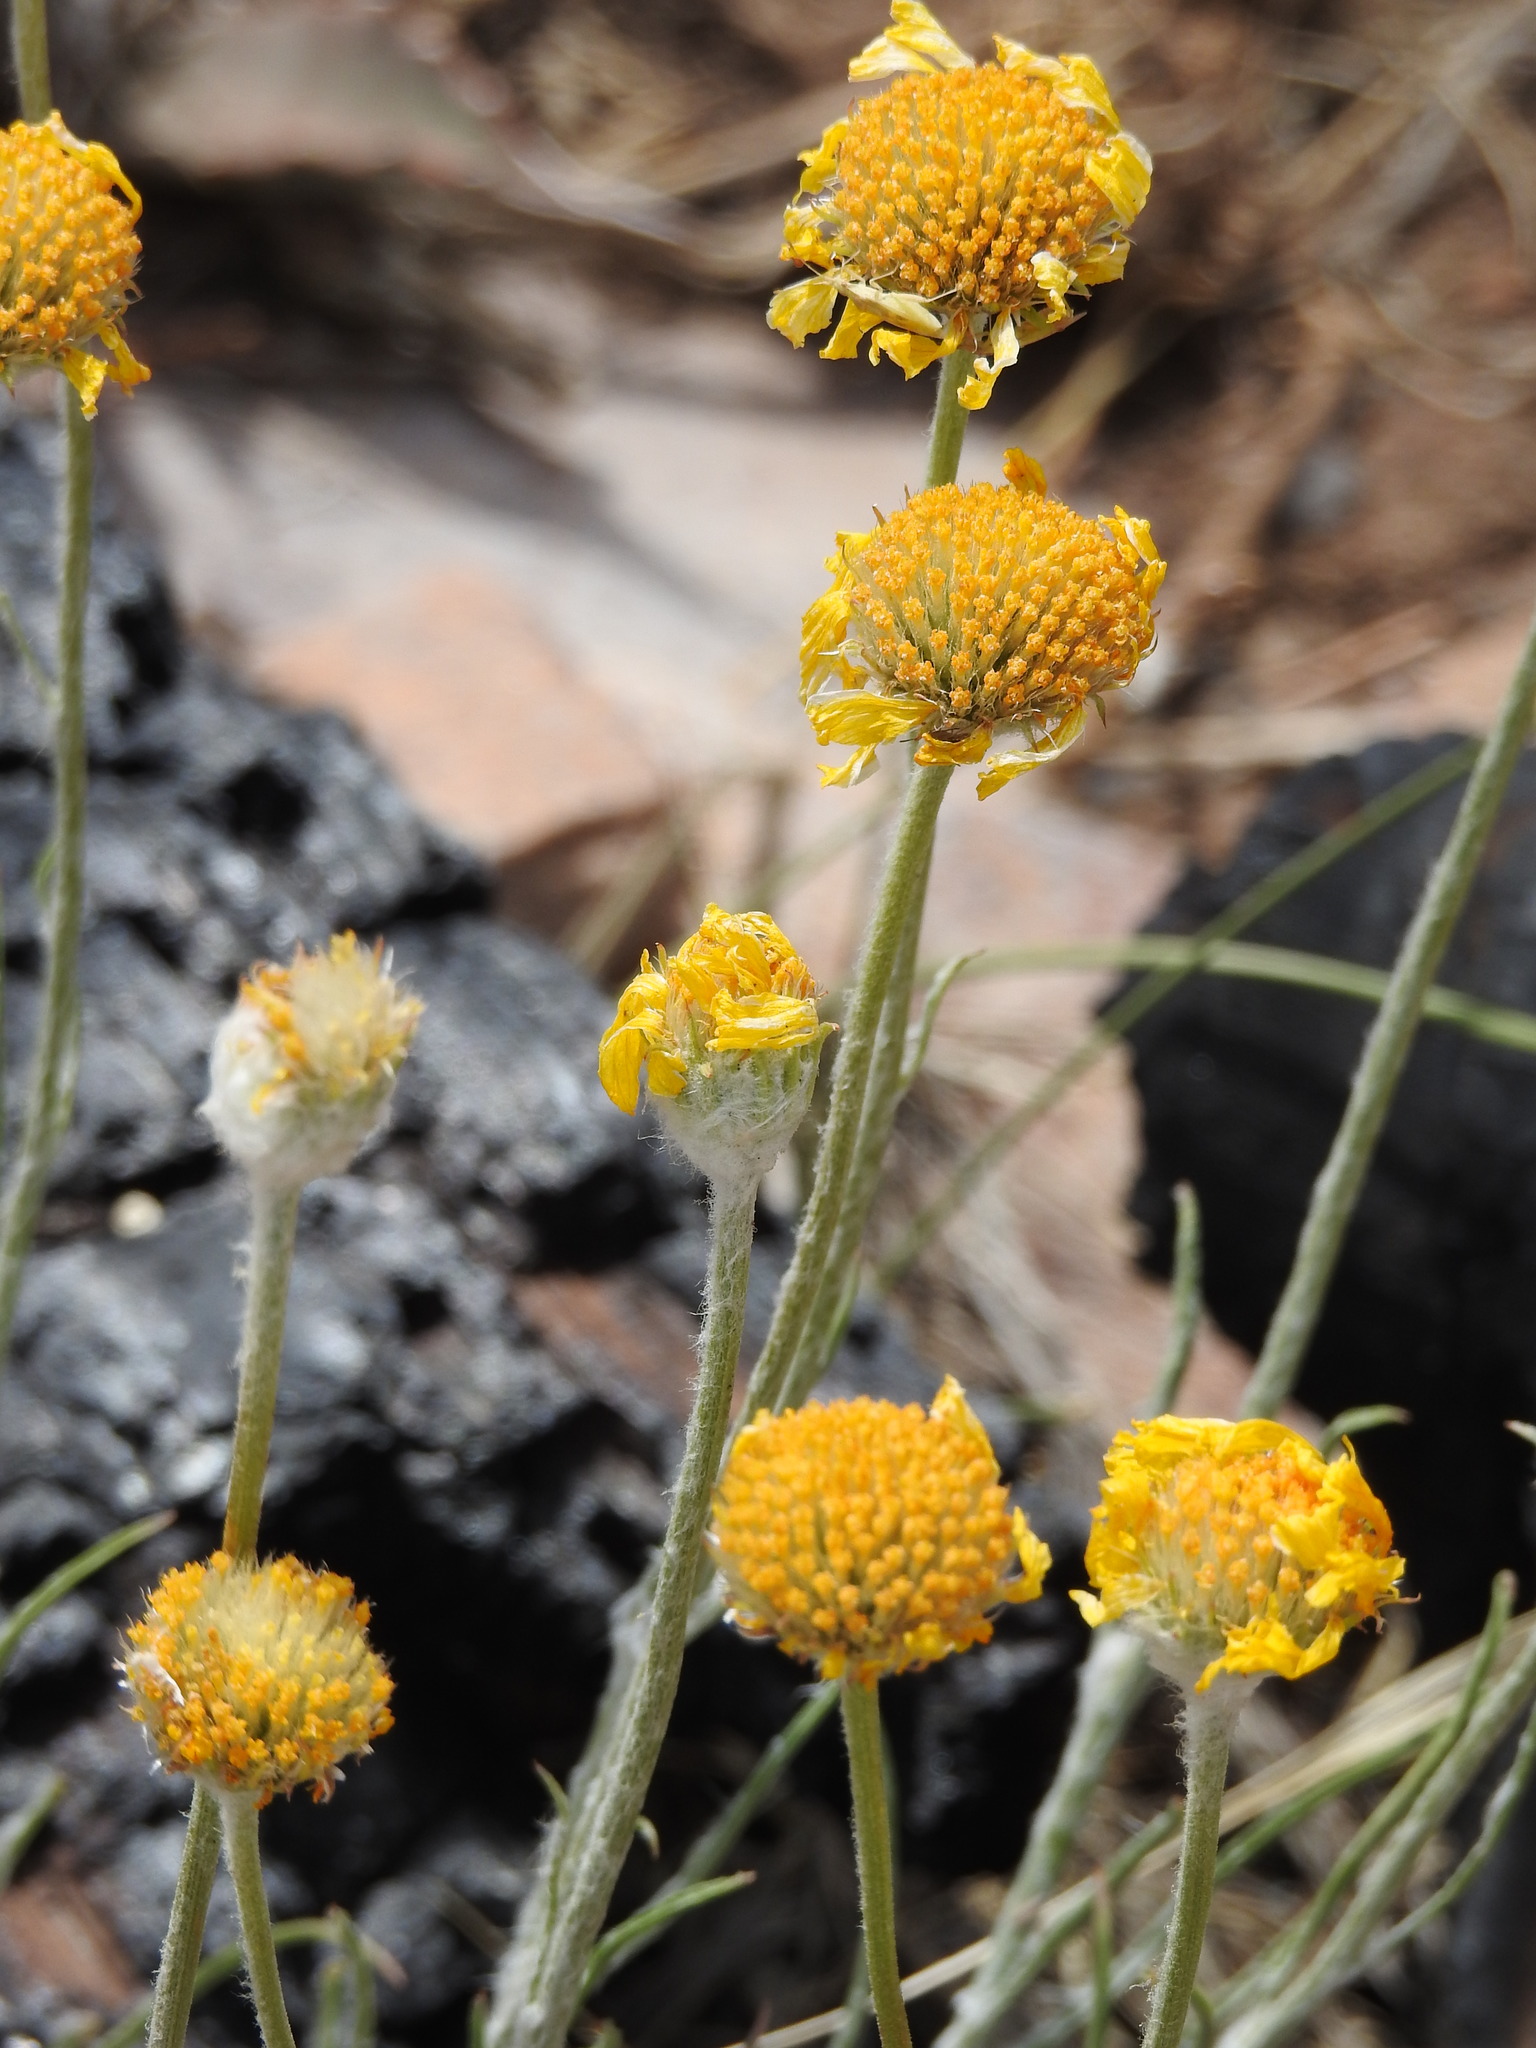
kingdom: Plantae
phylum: Tracheophyta
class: Magnoliopsida
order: Asterales
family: Asteraceae
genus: Hymenoxys
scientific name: Hymenoxys bigelovii
